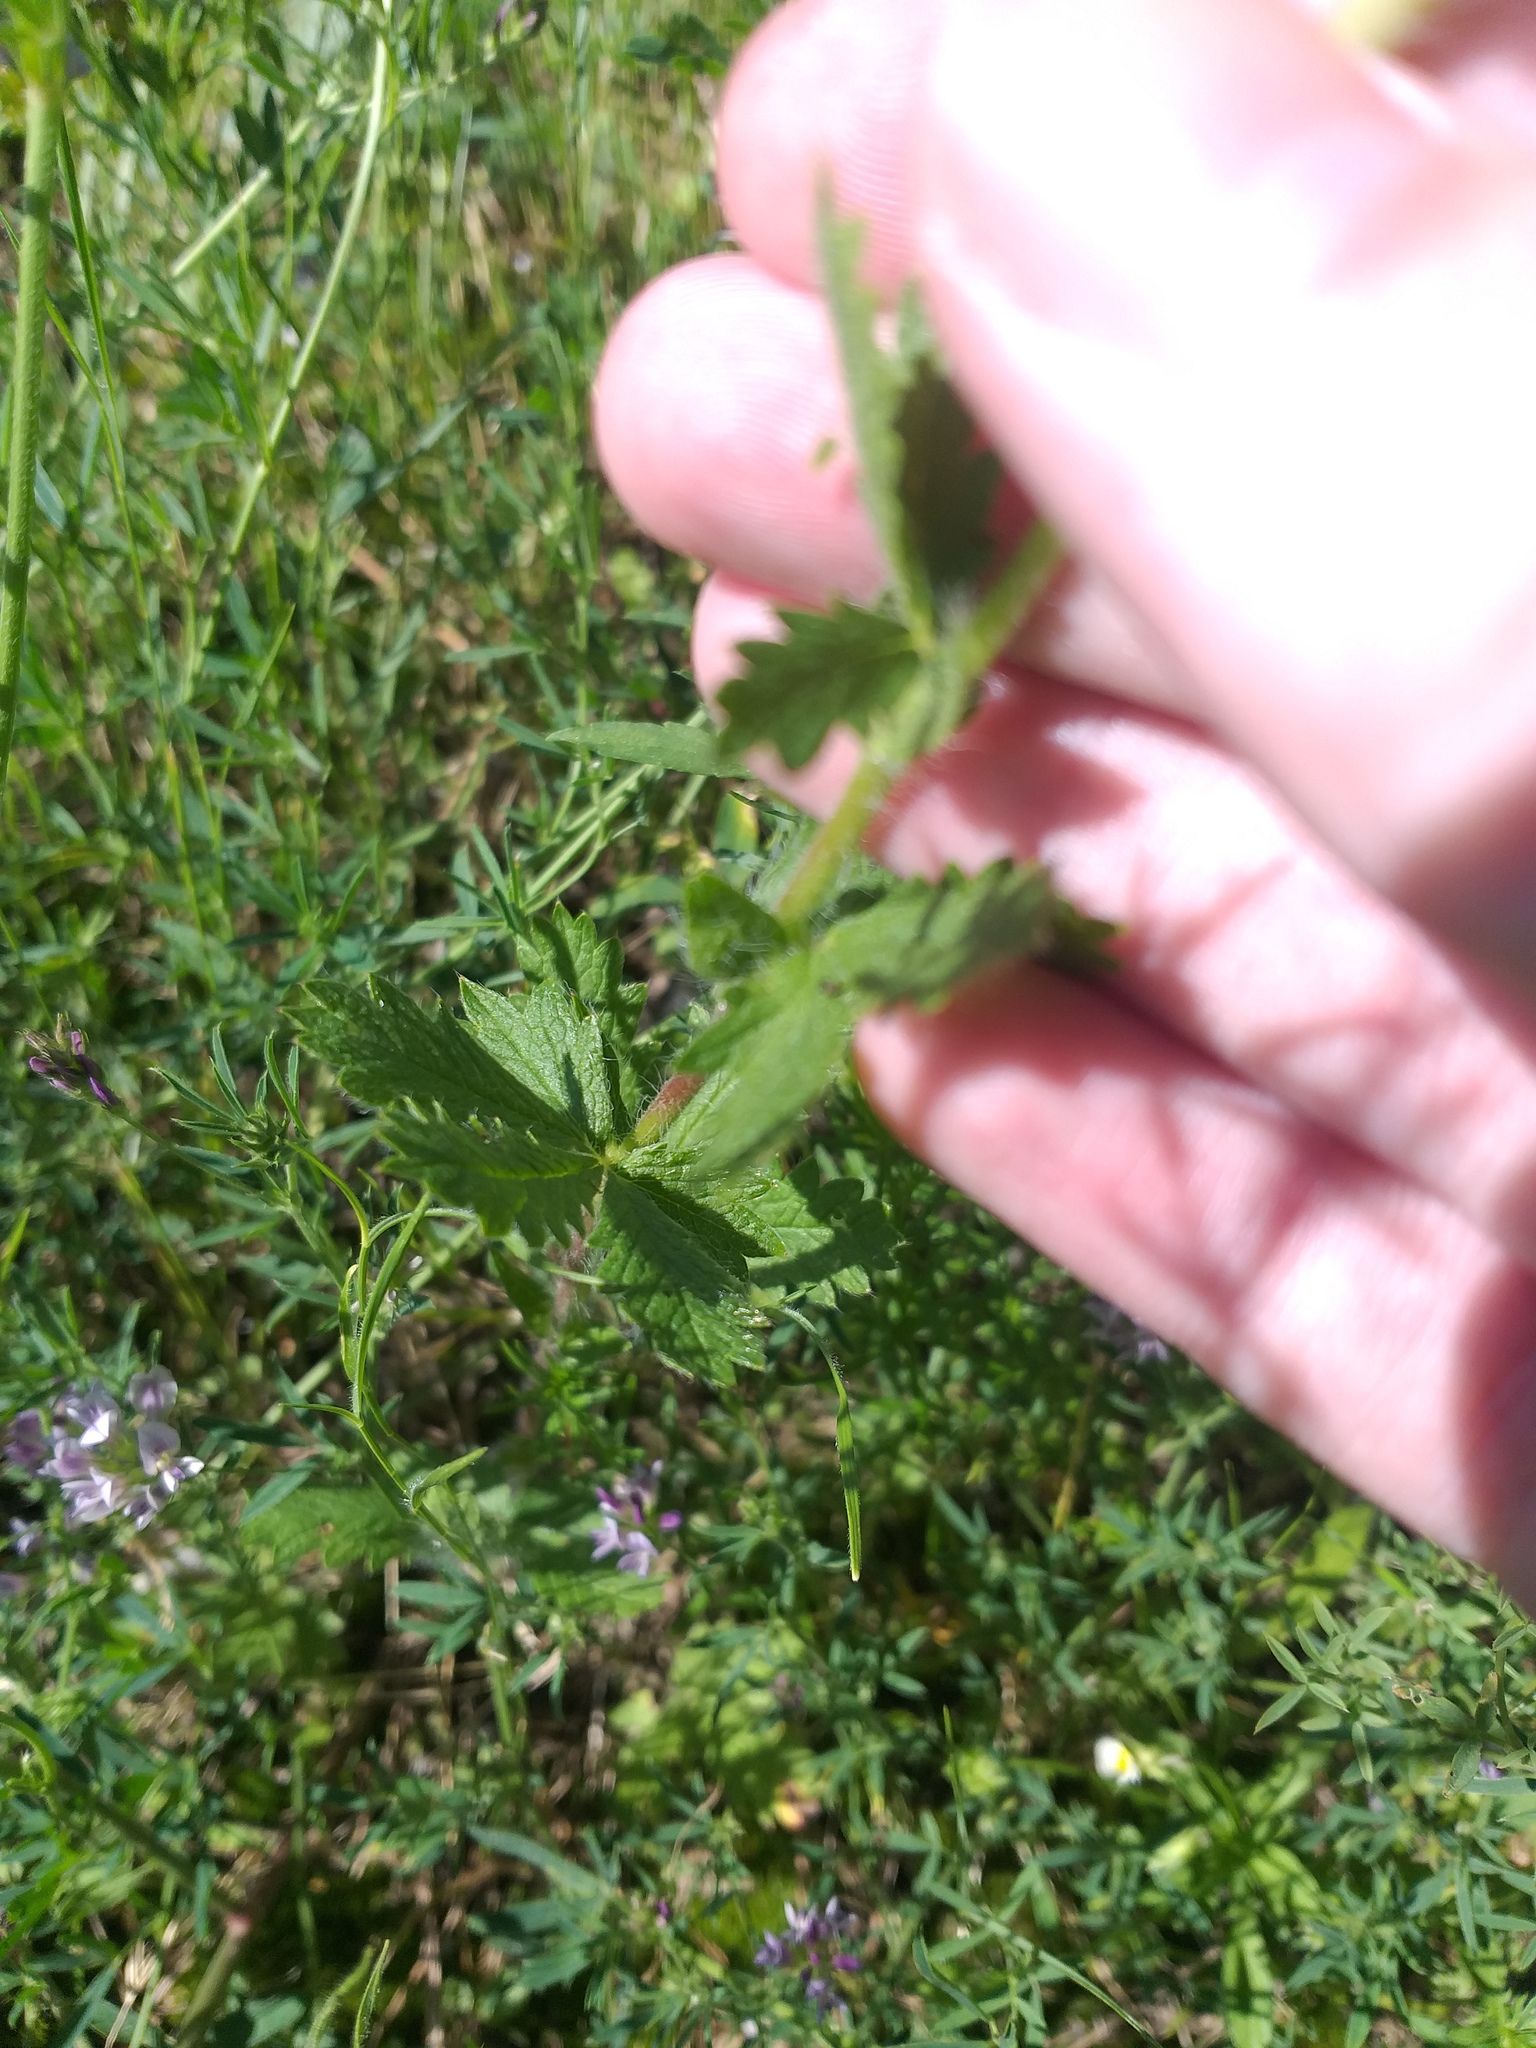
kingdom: Plantae
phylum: Tracheophyta
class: Magnoliopsida
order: Rosales
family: Rosaceae
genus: Potentilla
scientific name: Potentilla recta
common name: Sulphur cinquefoil
